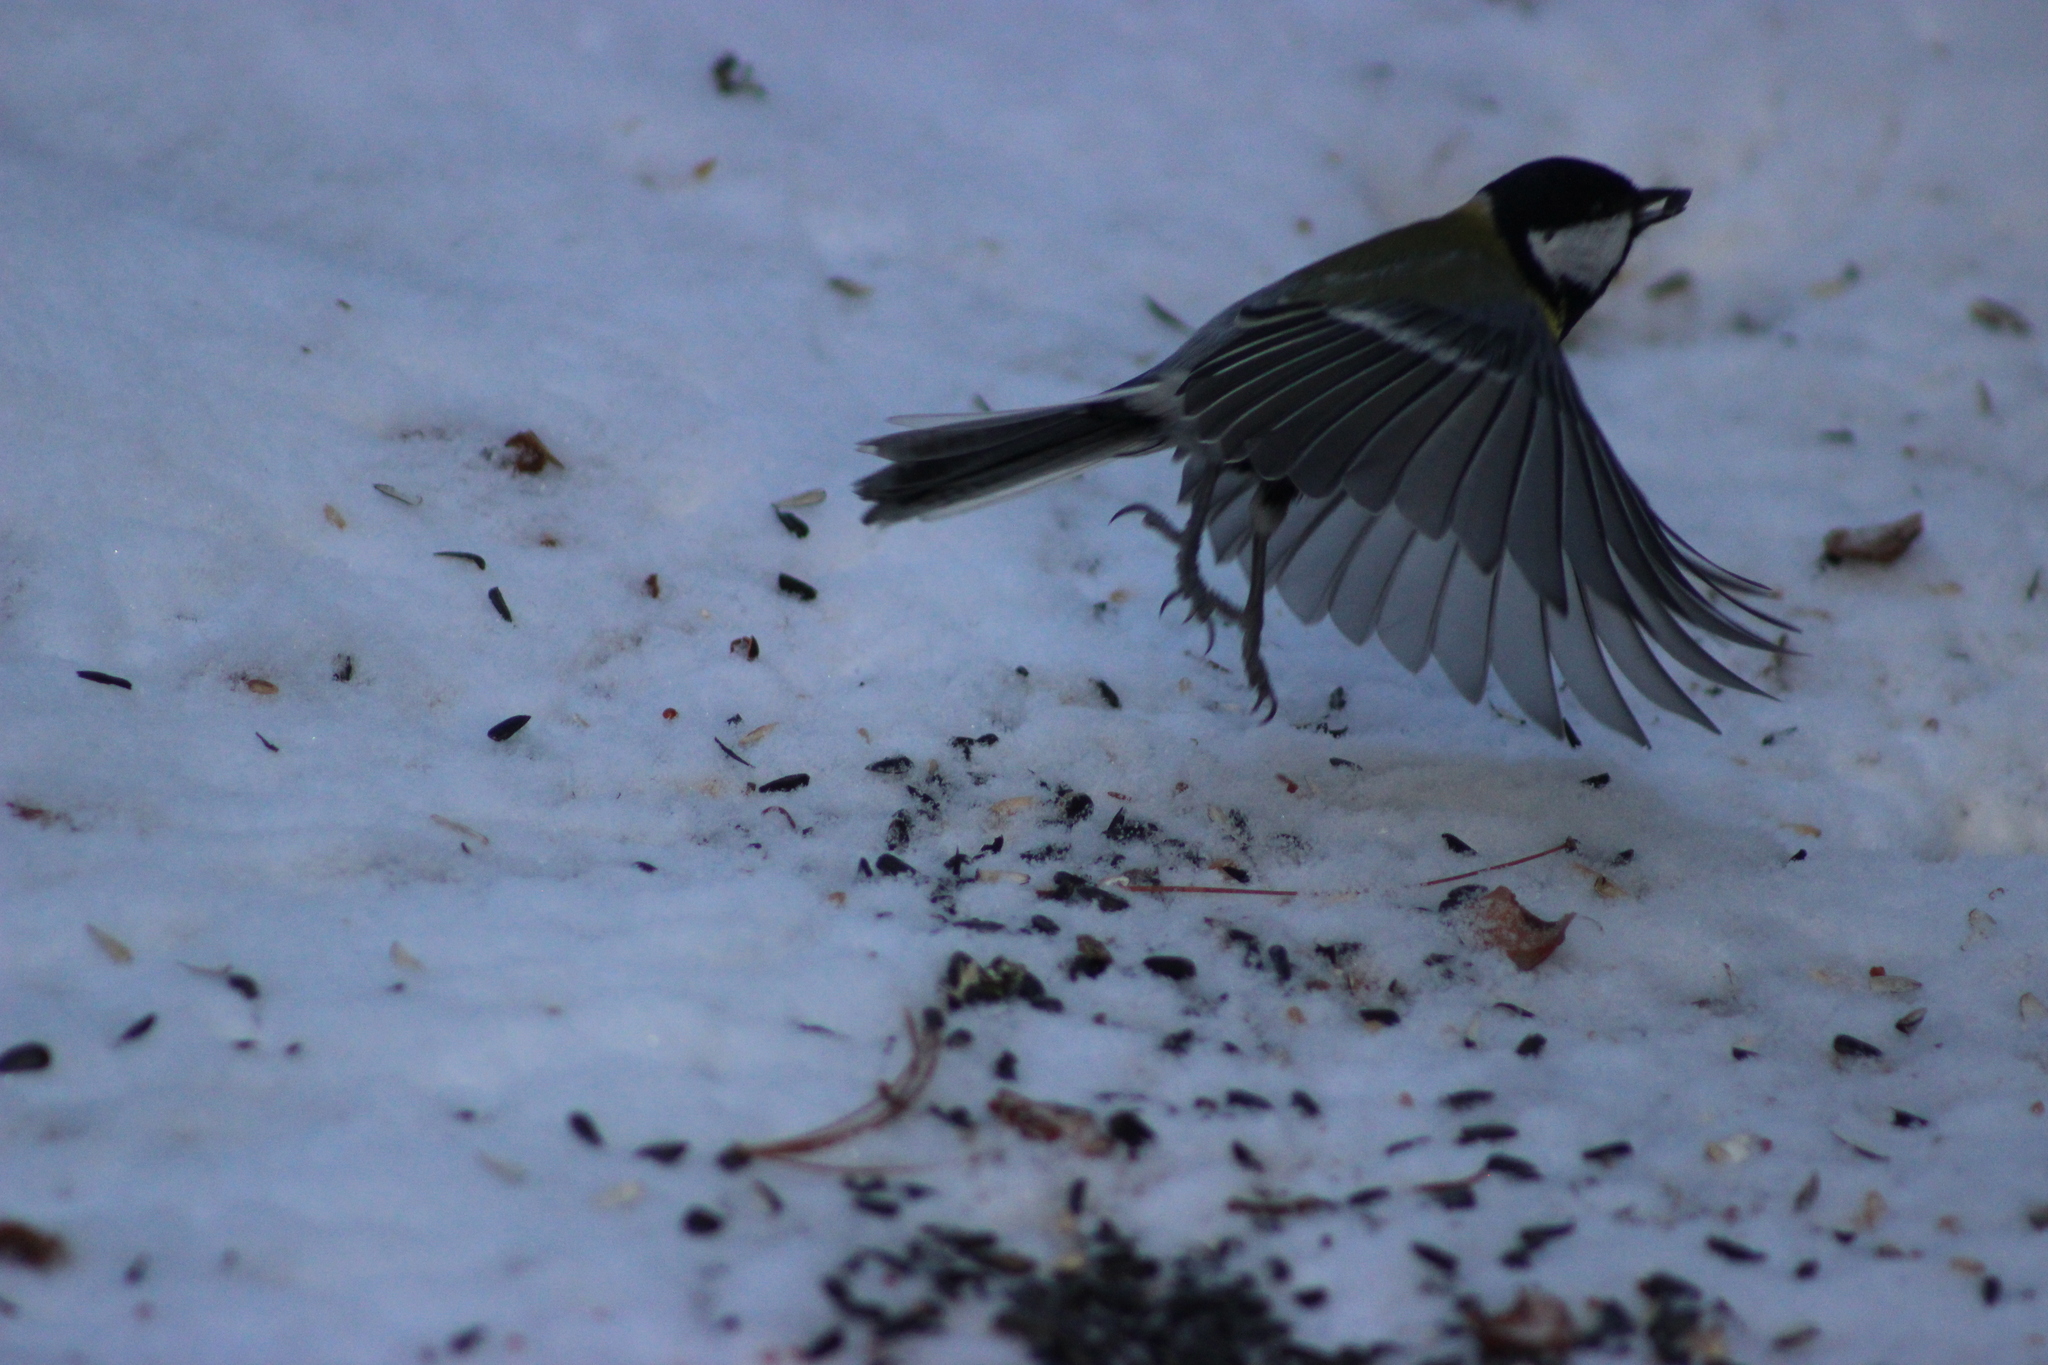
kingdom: Animalia
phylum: Chordata
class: Aves
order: Passeriformes
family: Paridae
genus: Parus
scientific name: Parus major
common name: Great tit
